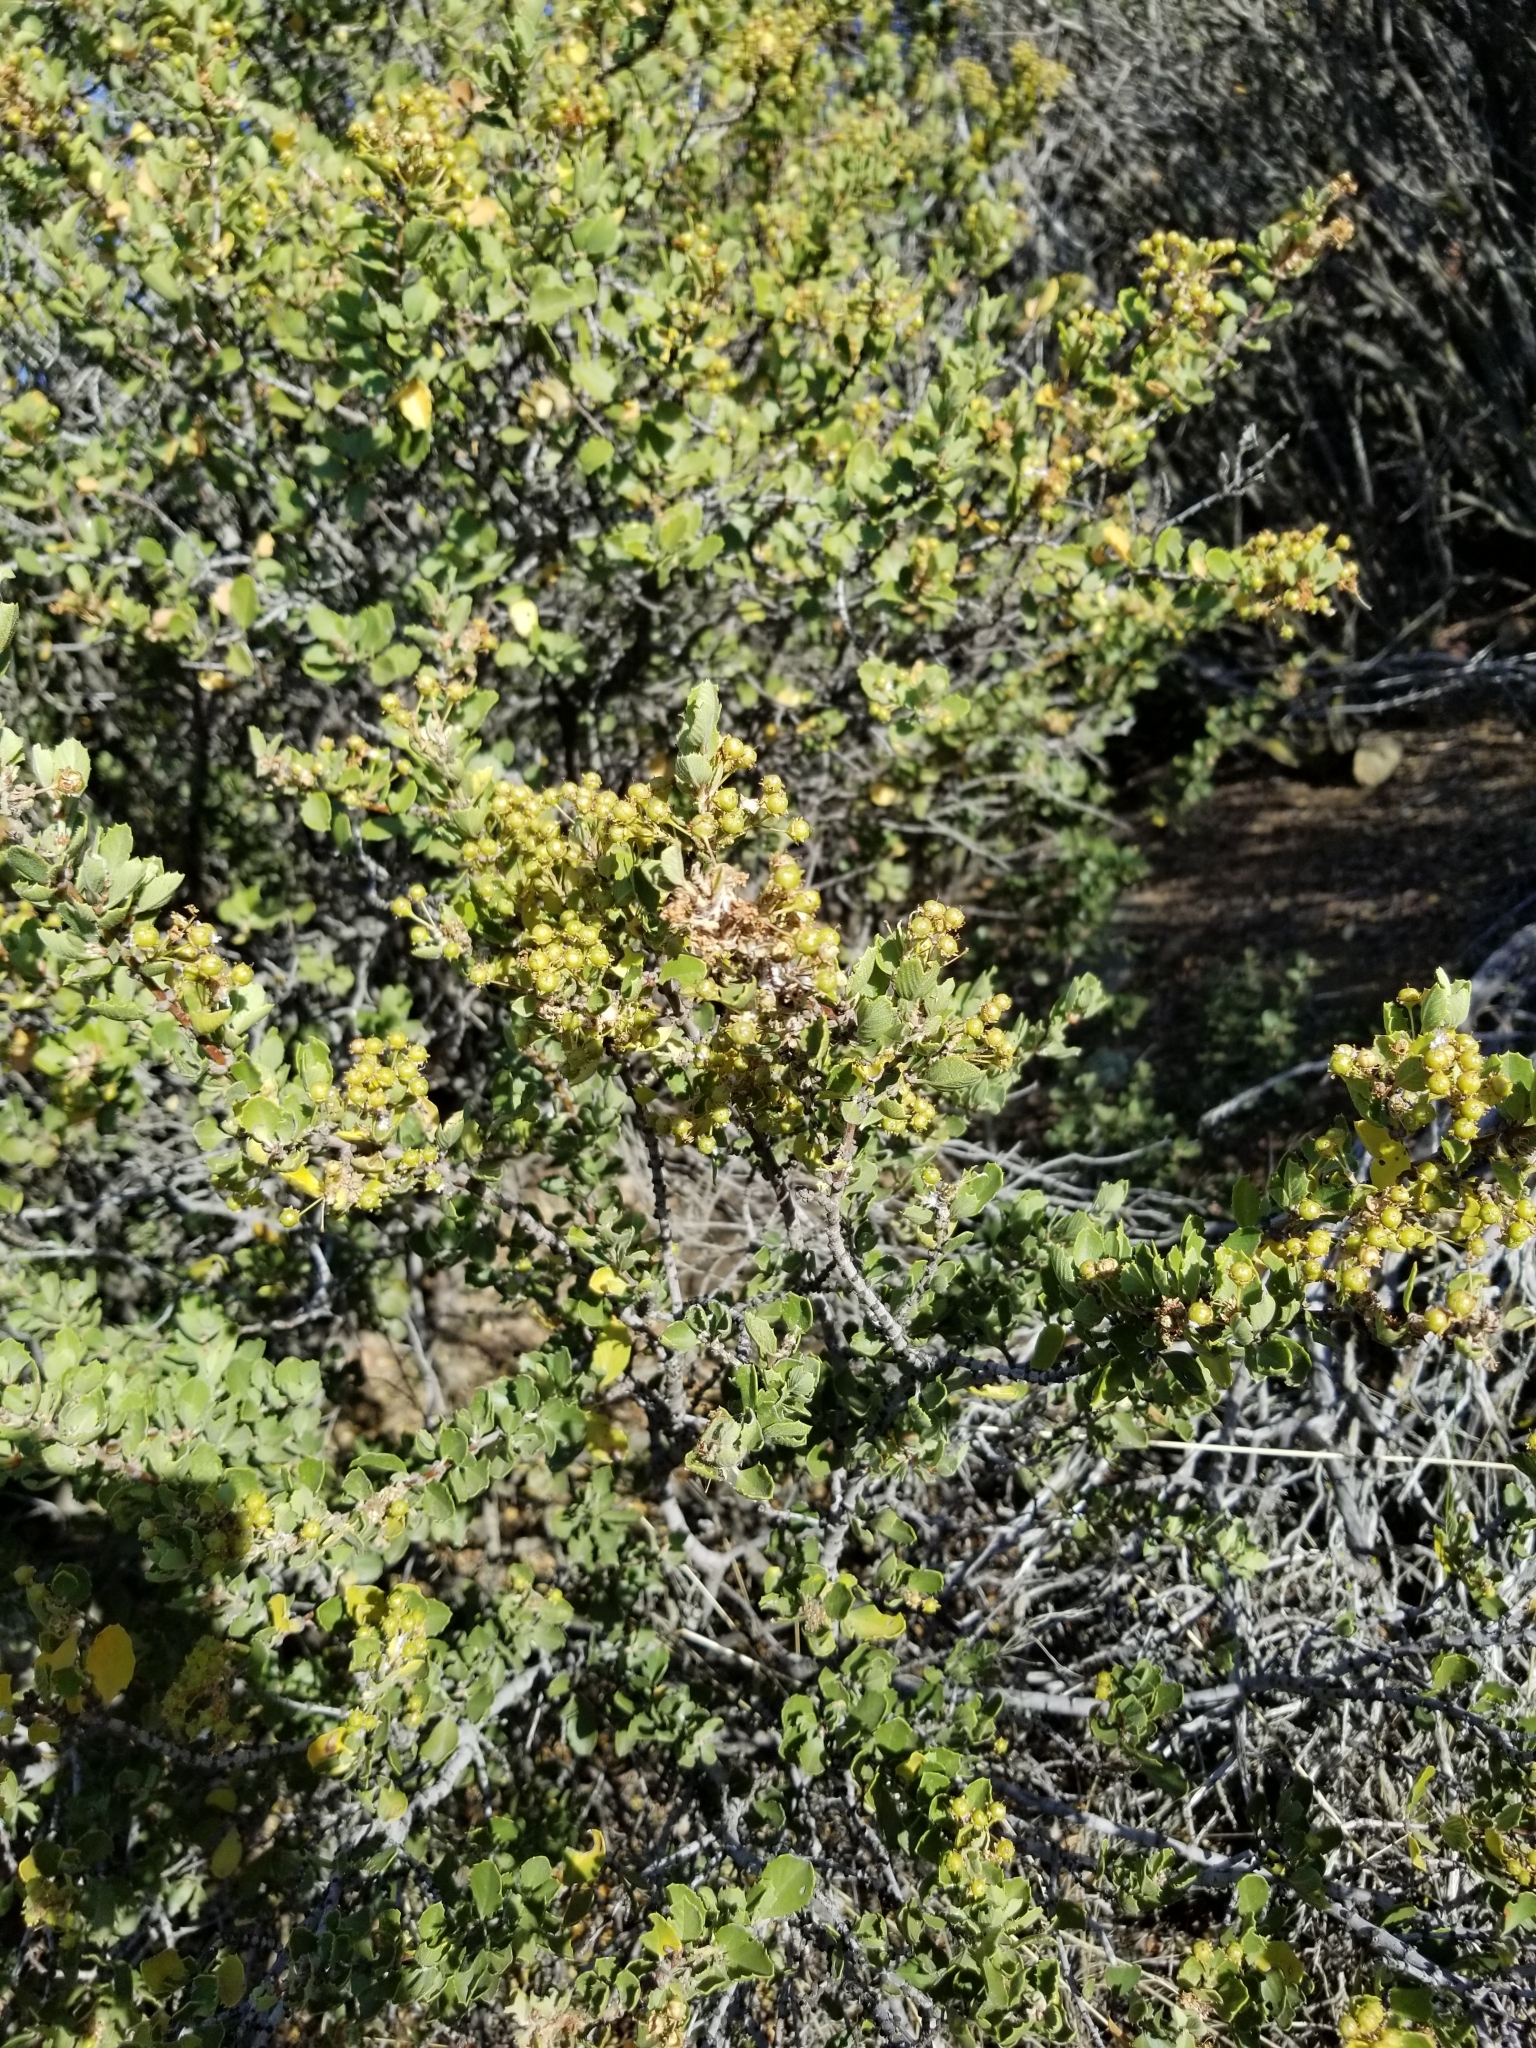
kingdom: Plantae
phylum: Tracheophyta
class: Magnoliopsida
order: Rosales
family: Rhamnaceae
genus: Ceanothus
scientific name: Ceanothus perplexans
